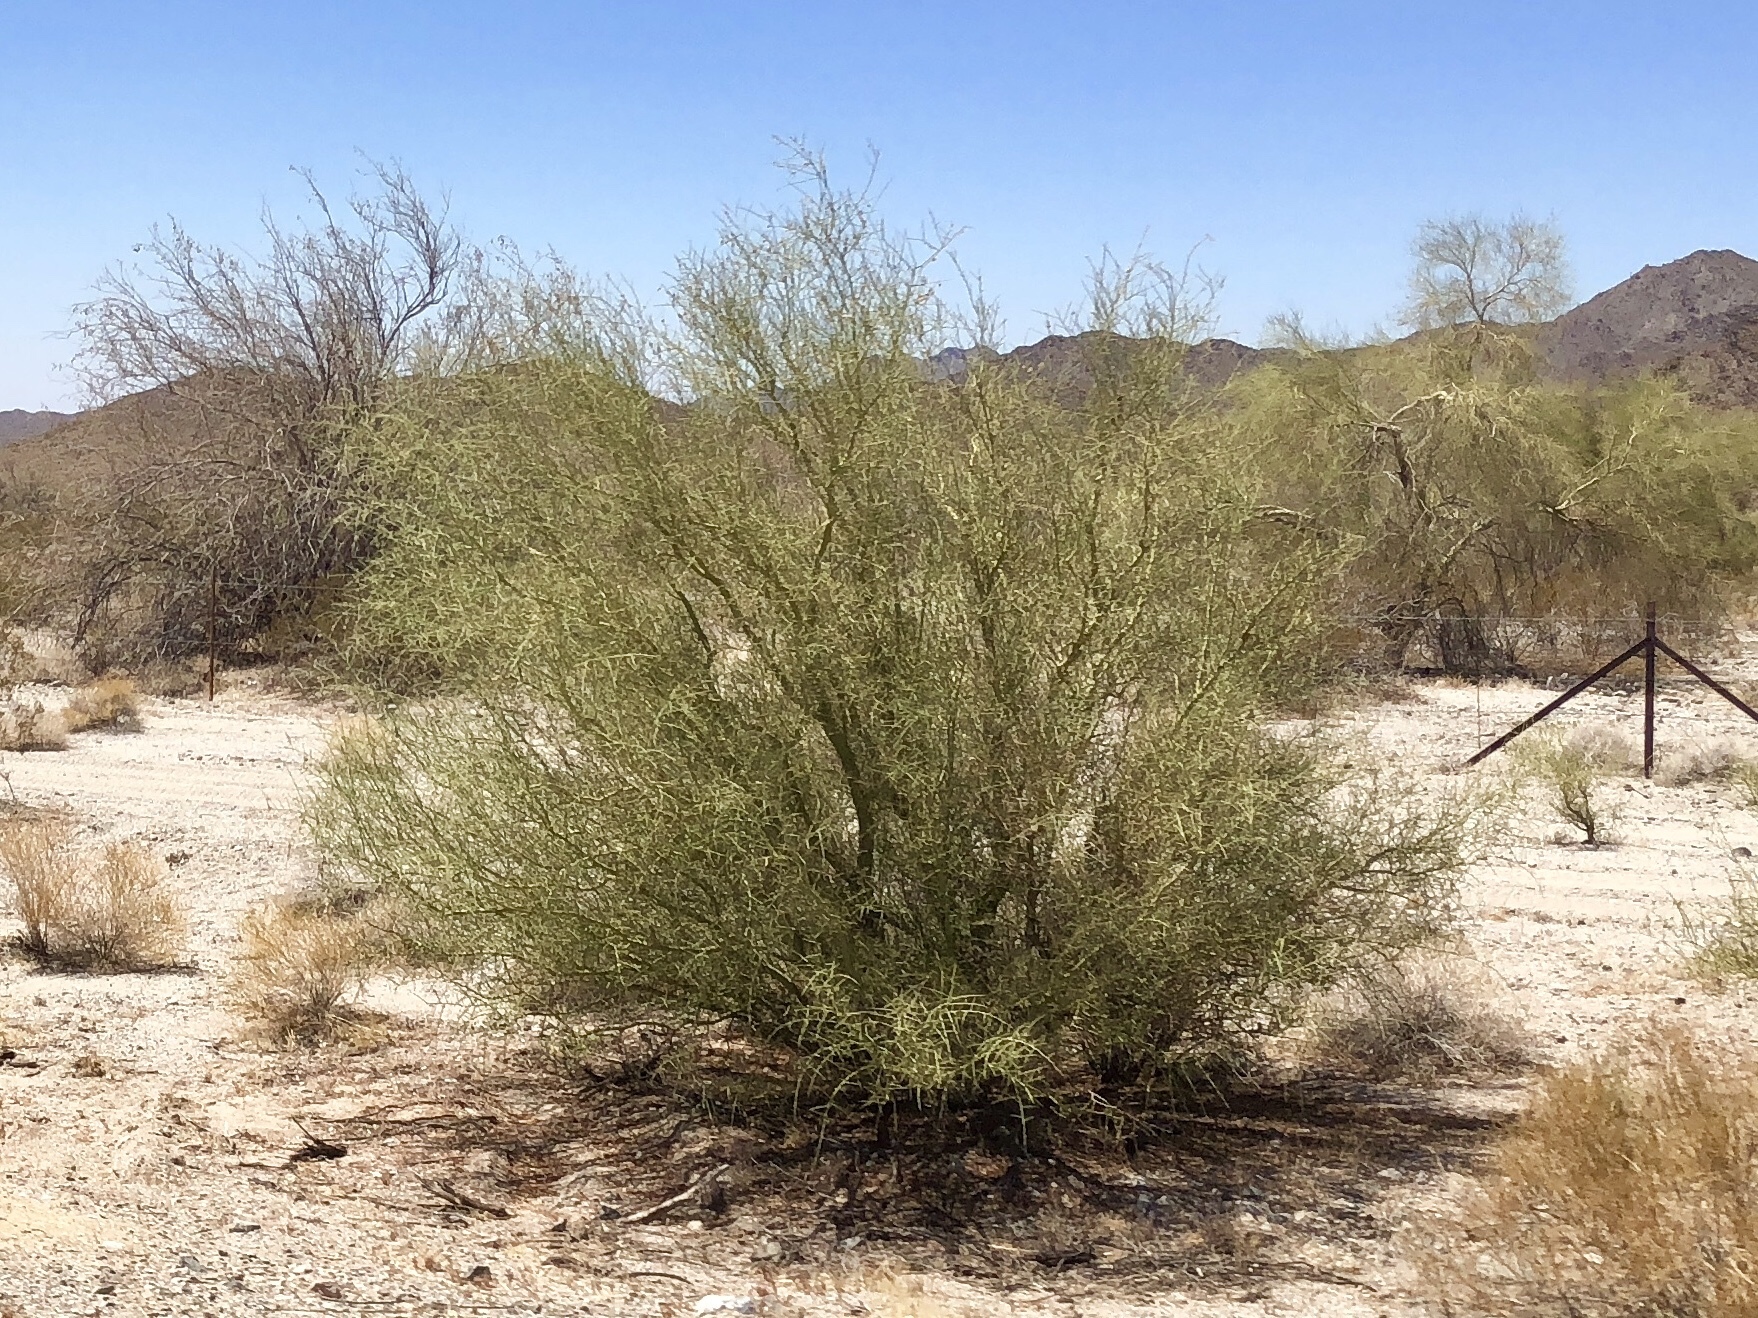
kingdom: Plantae
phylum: Tracheophyta
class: Magnoliopsida
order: Fabales
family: Fabaceae
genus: Parkinsonia
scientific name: Parkinsonia microphylla
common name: Yellow paloverde
